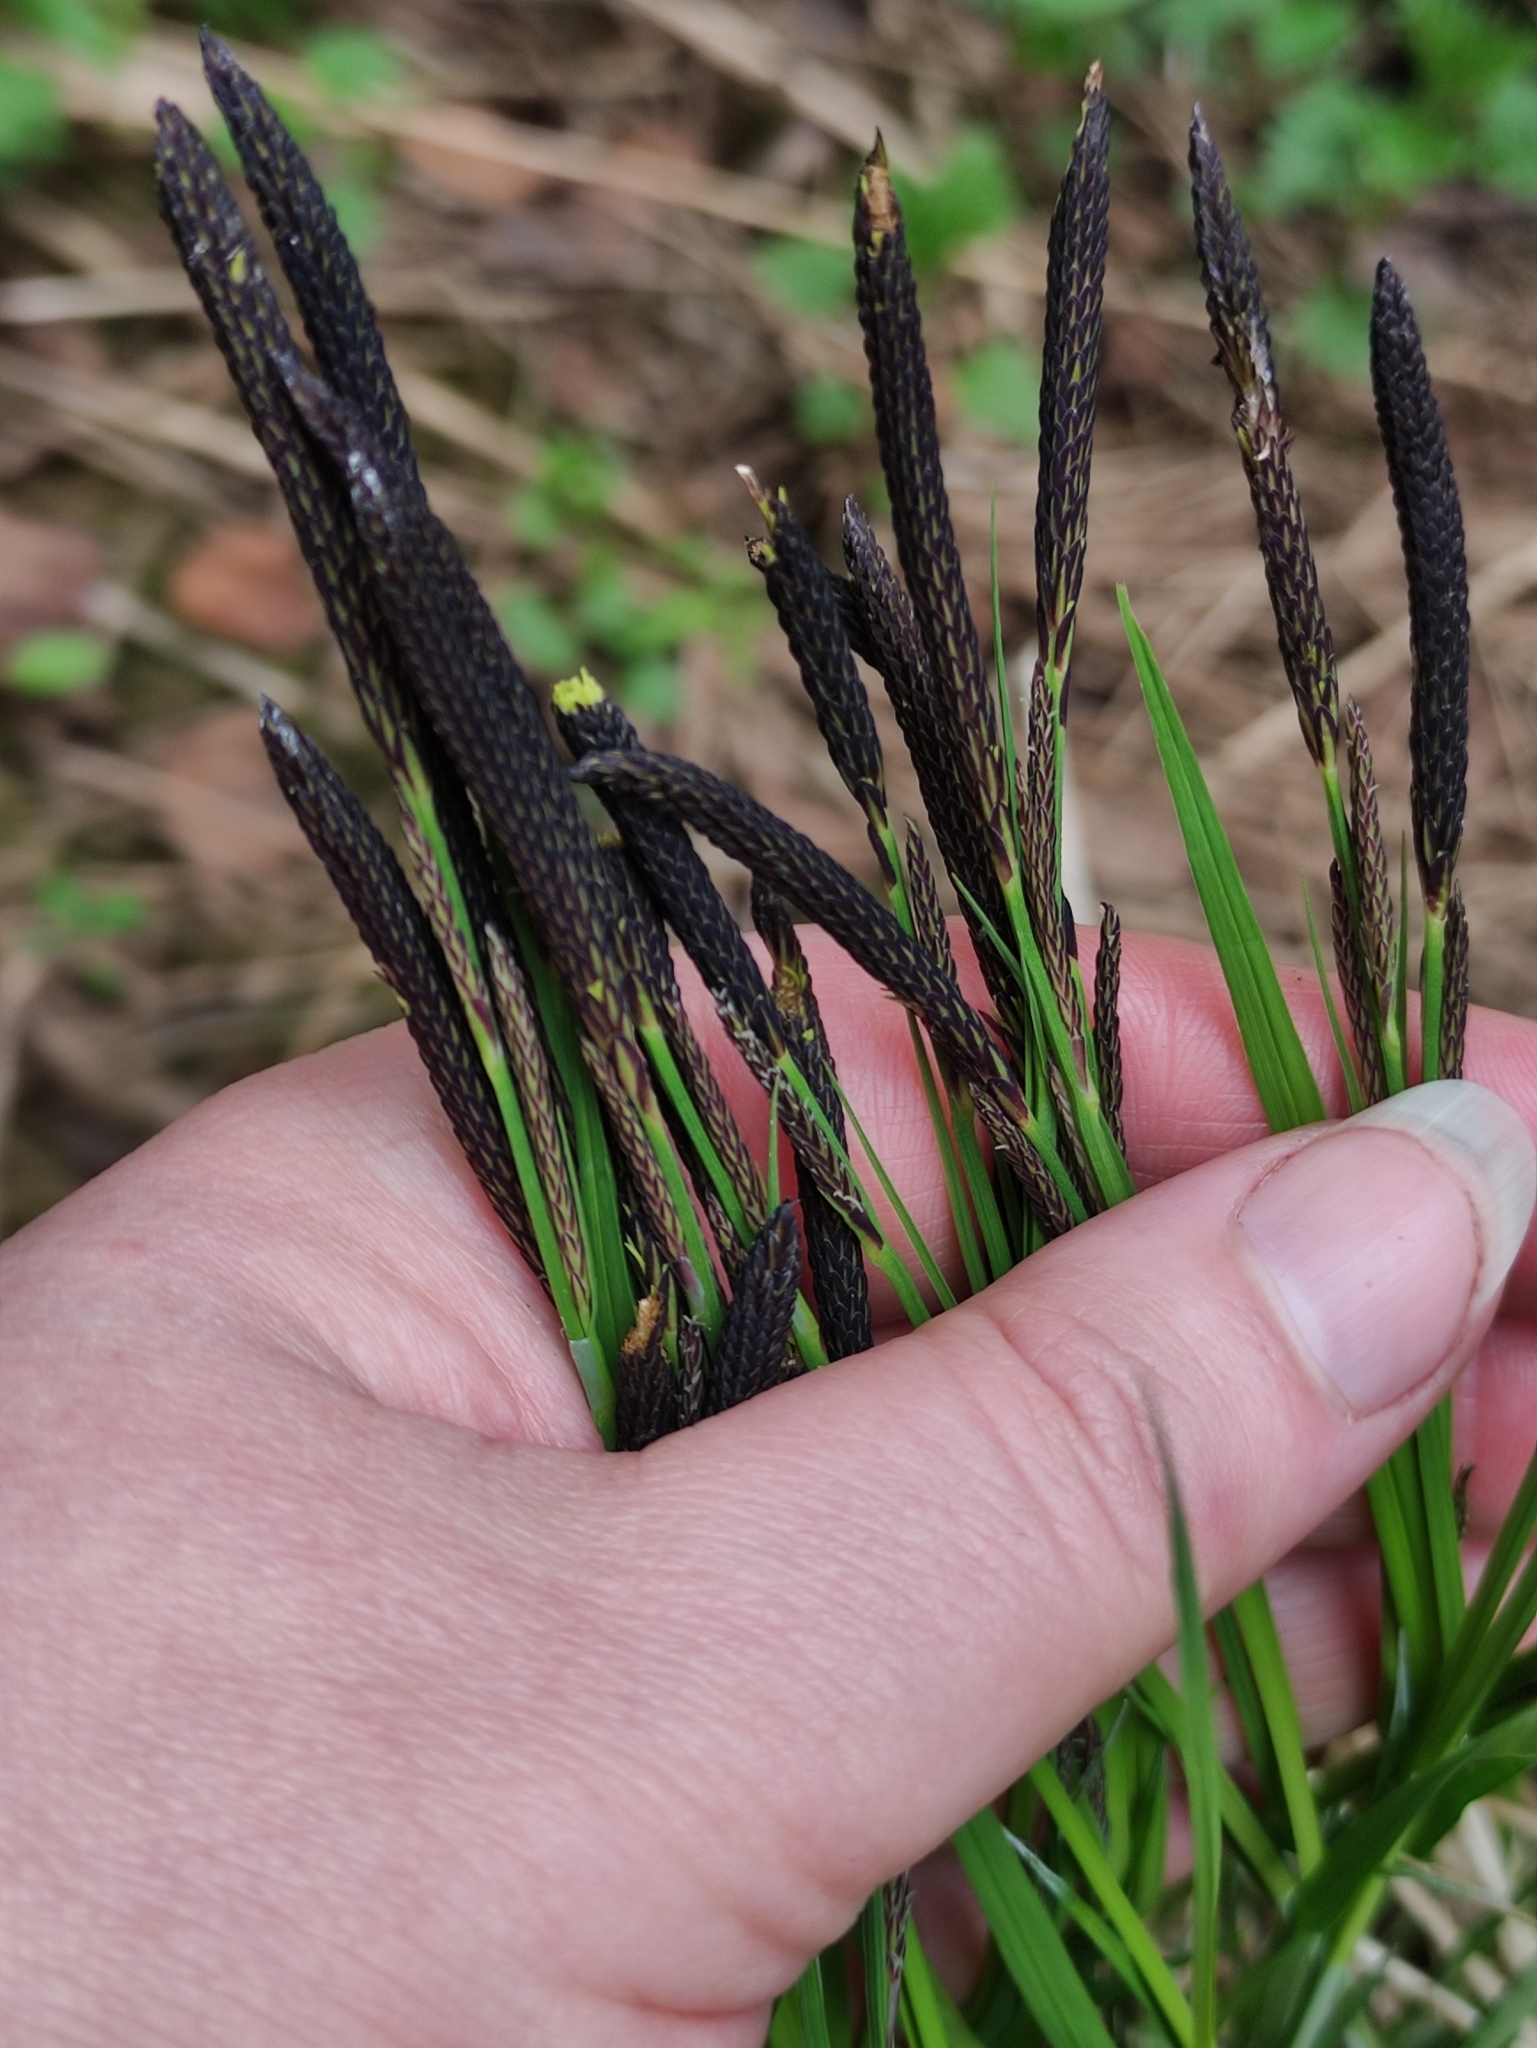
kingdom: Plantae
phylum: Tracheophyta
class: Liliopsida
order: Poales
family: Cyperaceae
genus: Carex
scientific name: Carex cespitosa
